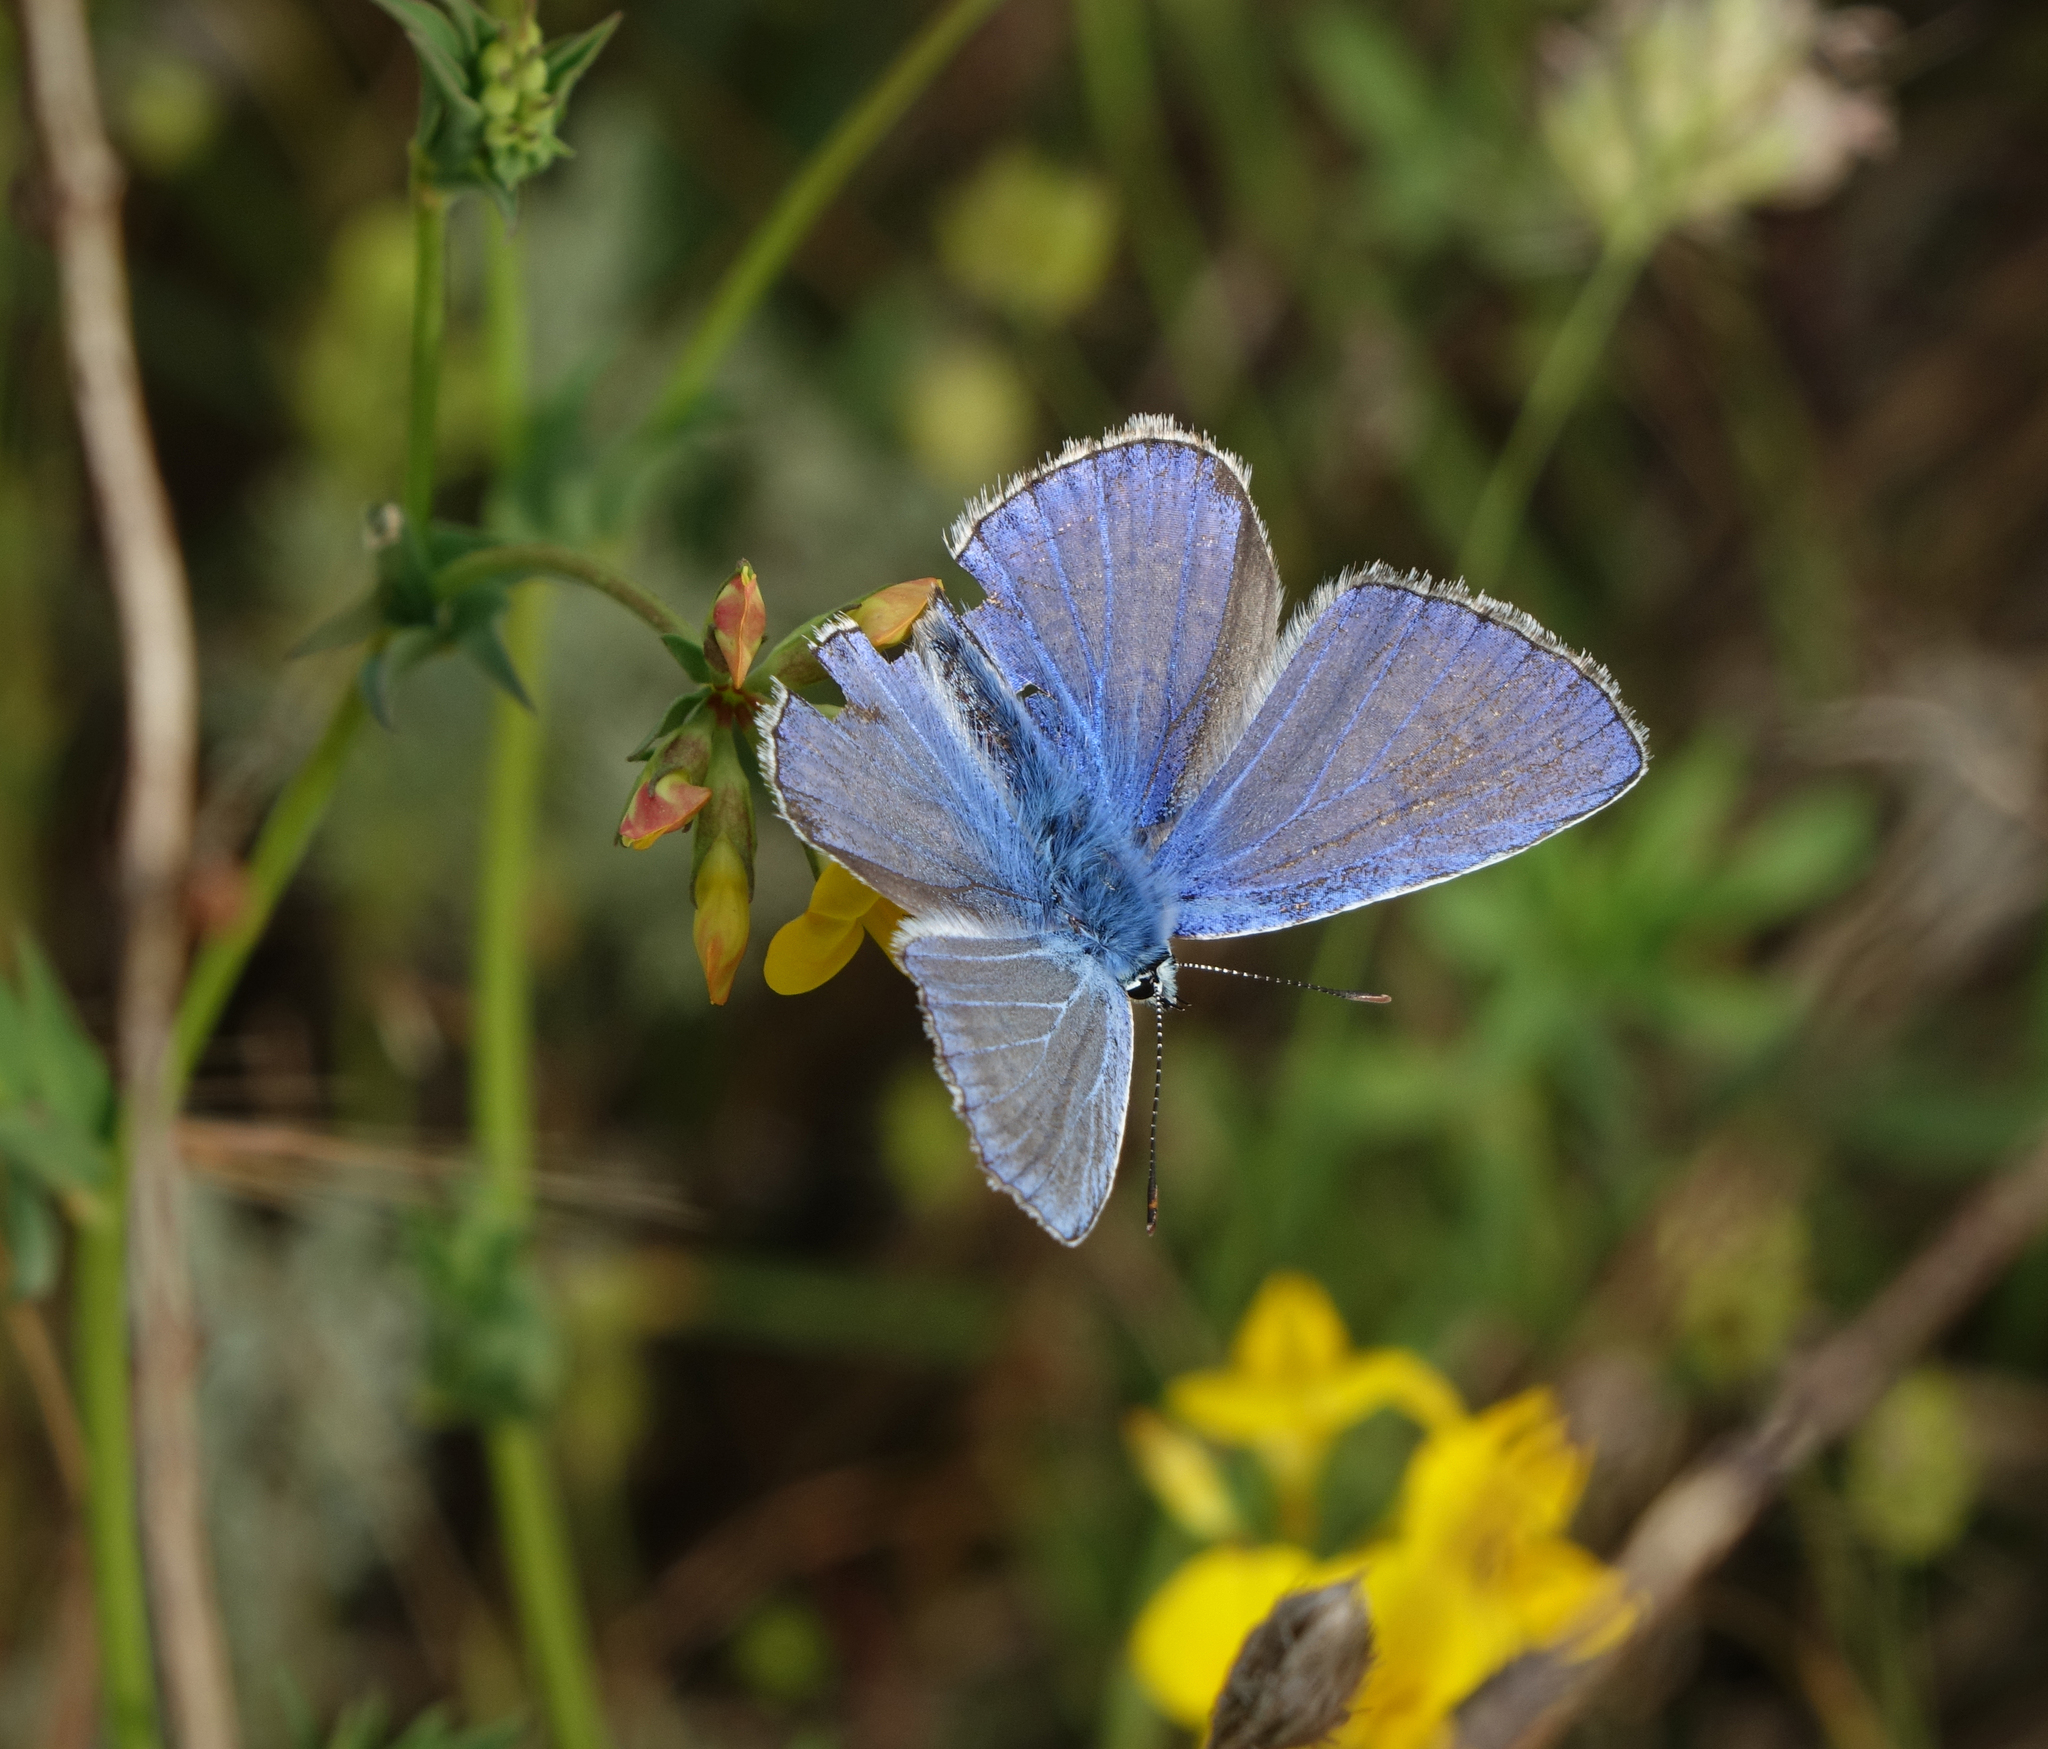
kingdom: Animalia
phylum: Arthropoda
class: Insecta
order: Lepidoptera
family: Lycaenidae
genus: Polyommatus
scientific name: Polyommatus icarus
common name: Common blue
